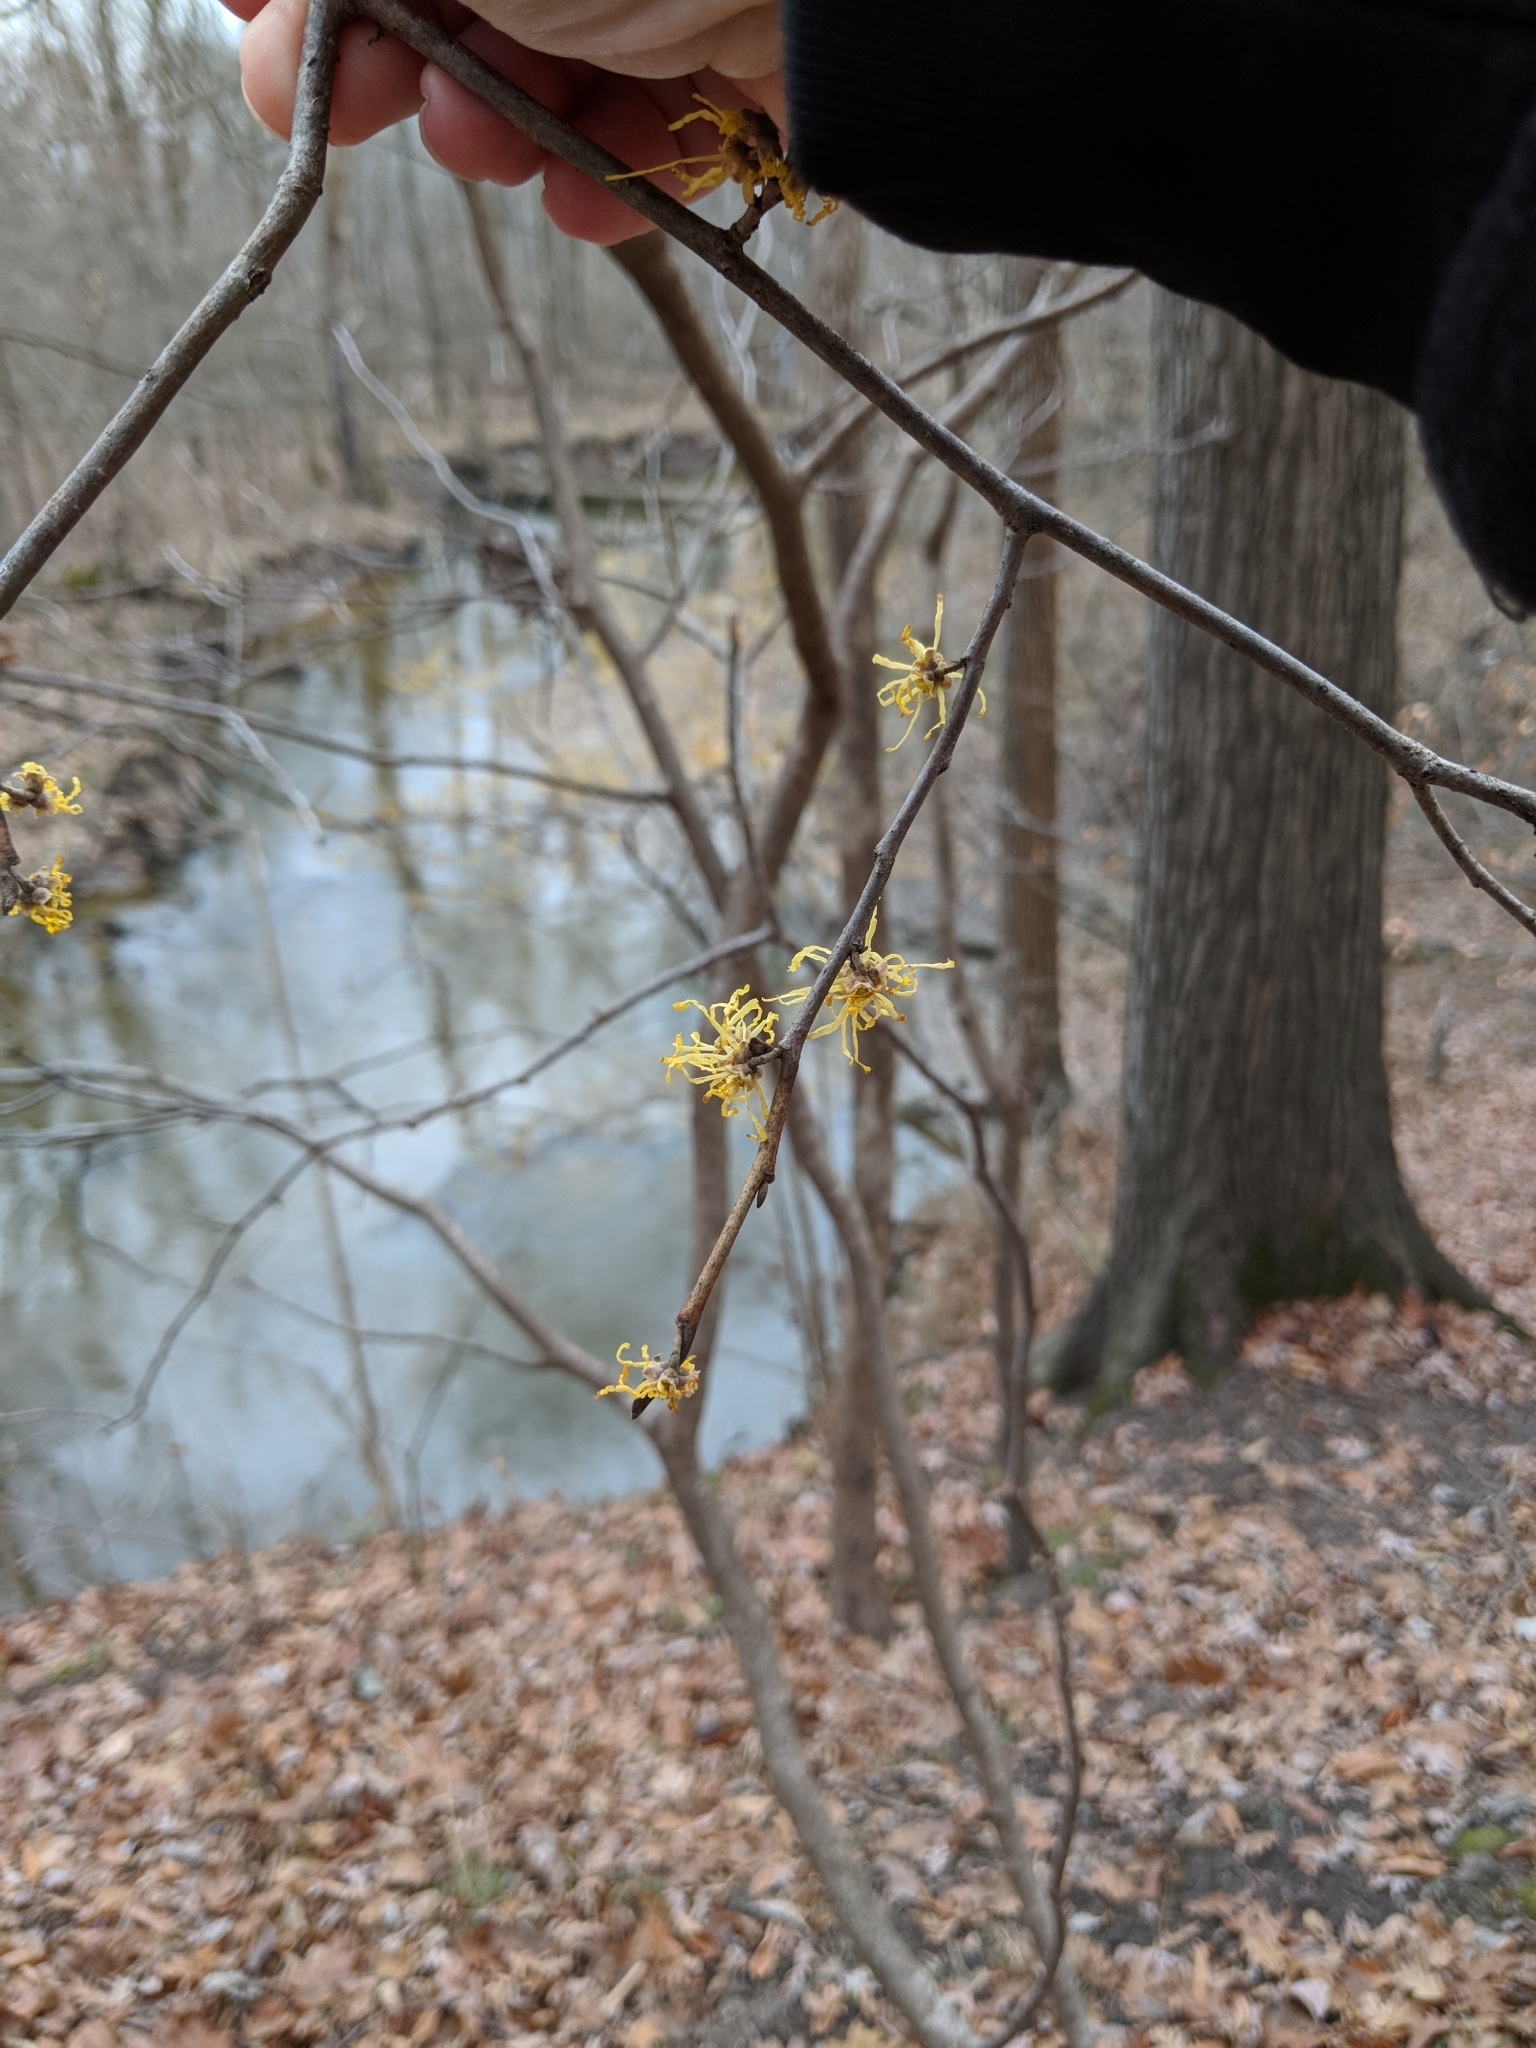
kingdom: Plantae
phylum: Tracheophyta
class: Magnoliopsida
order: Saxifragales
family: Hamamelidaceae
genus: Hamamelis
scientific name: Hamamelis virginiana
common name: Witch-hazel
